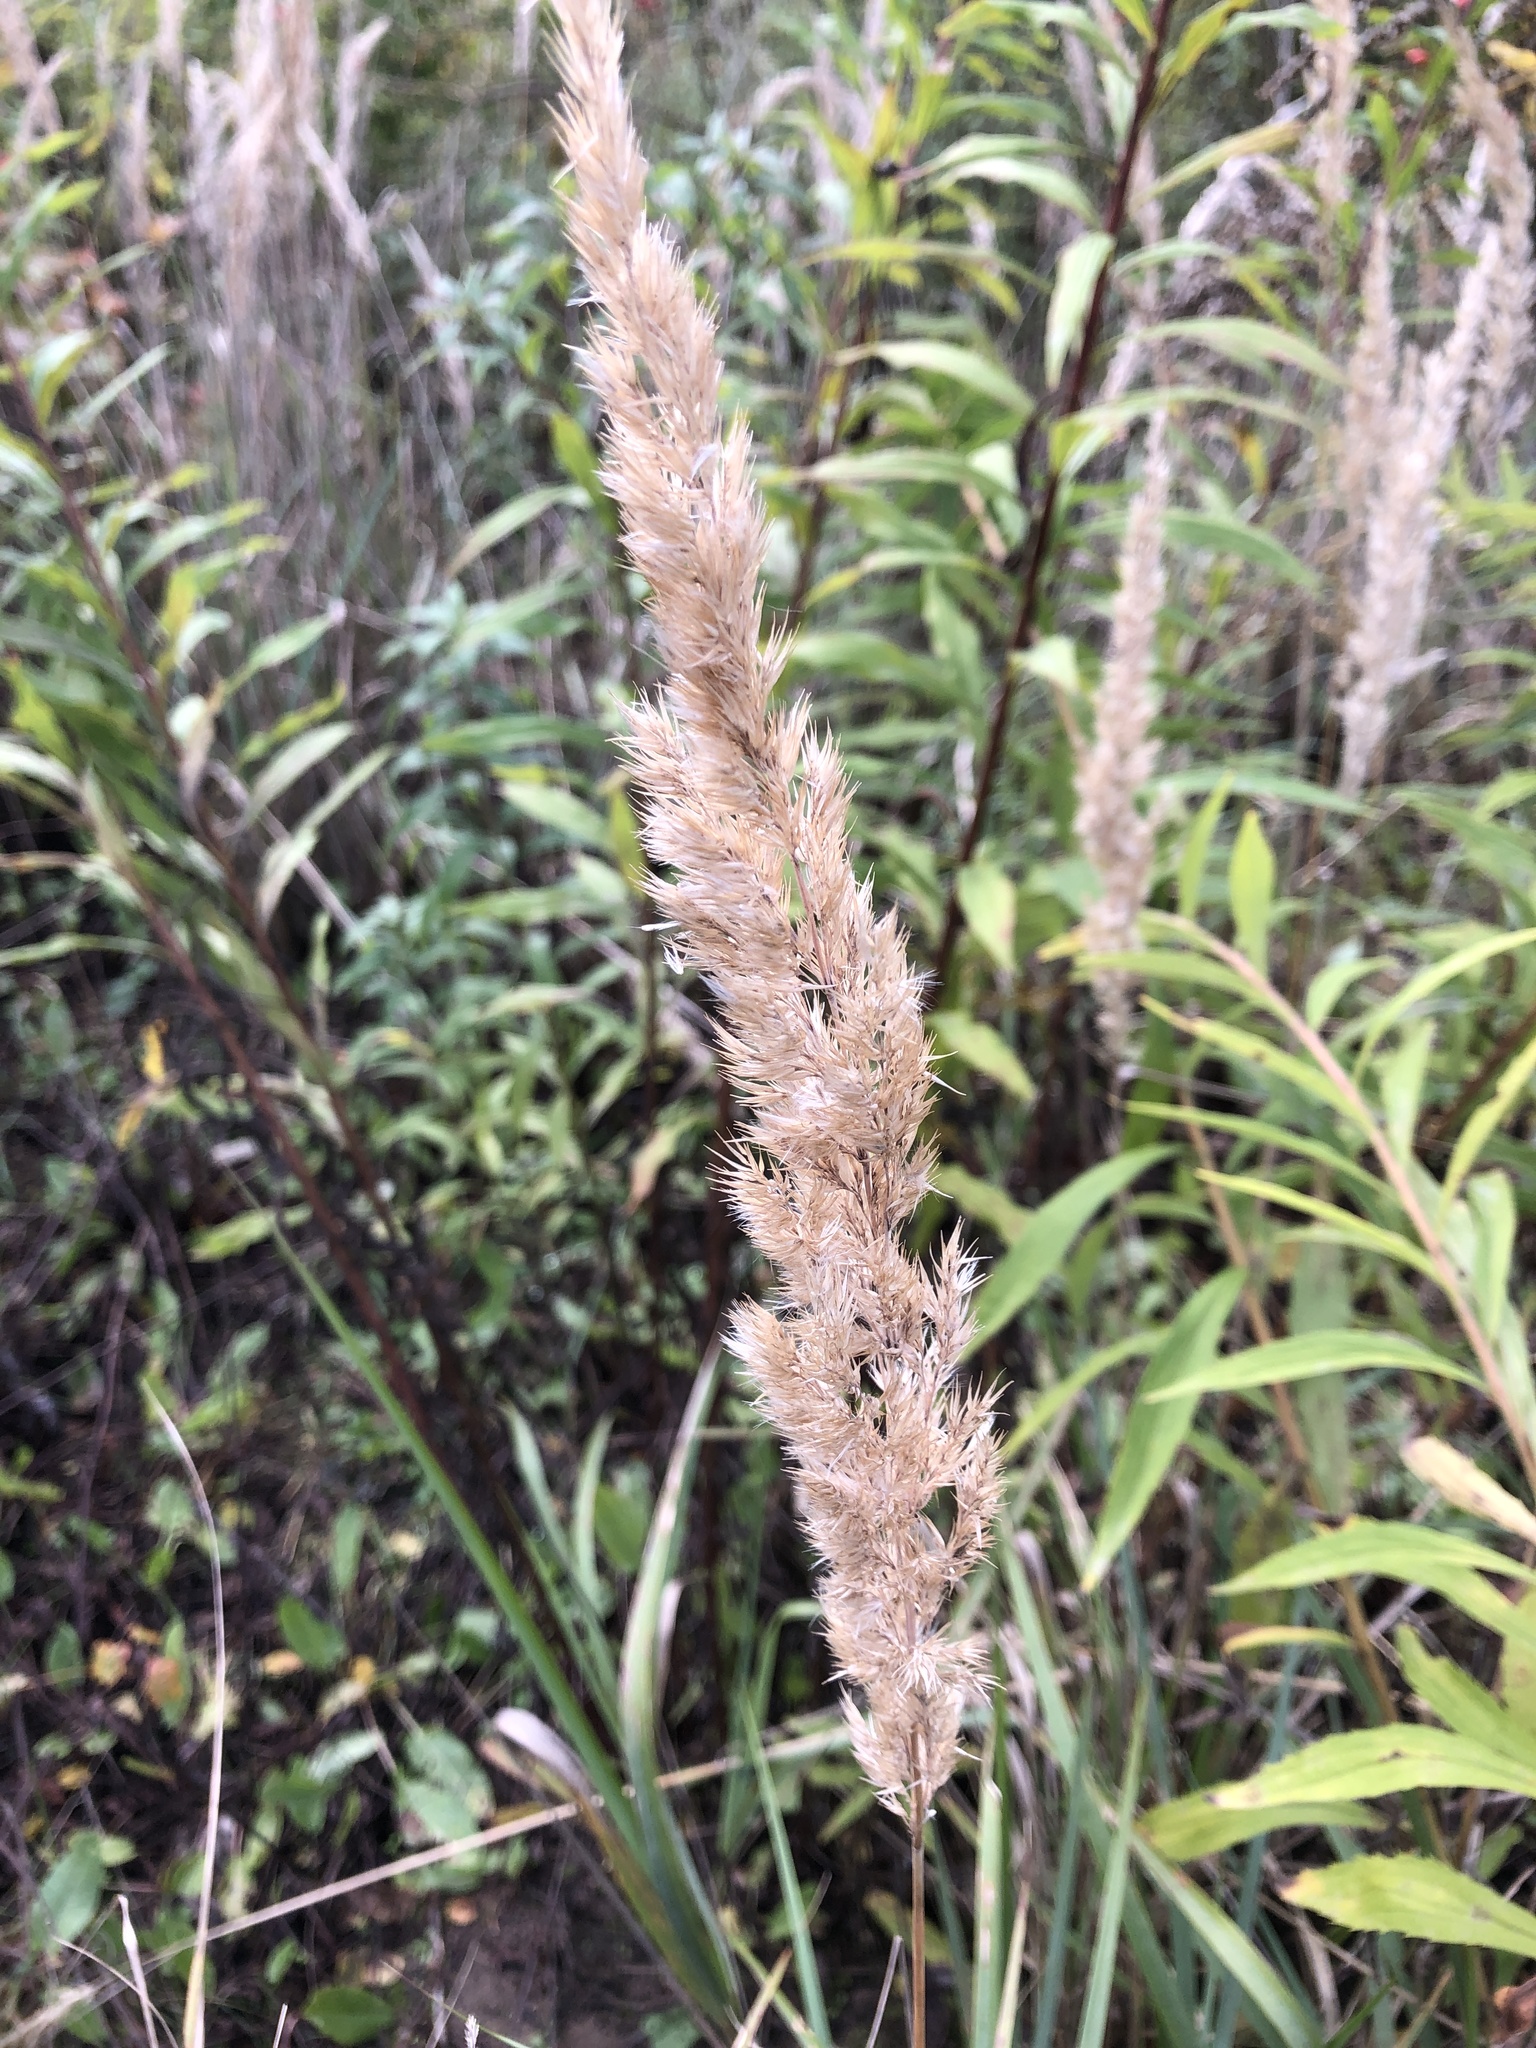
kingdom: Plantae
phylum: Tracheophyta
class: Liliopsida
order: Poales
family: Poaceae
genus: Calamagrostis
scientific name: Calamagrostis epigejos
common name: Wood small-reed
